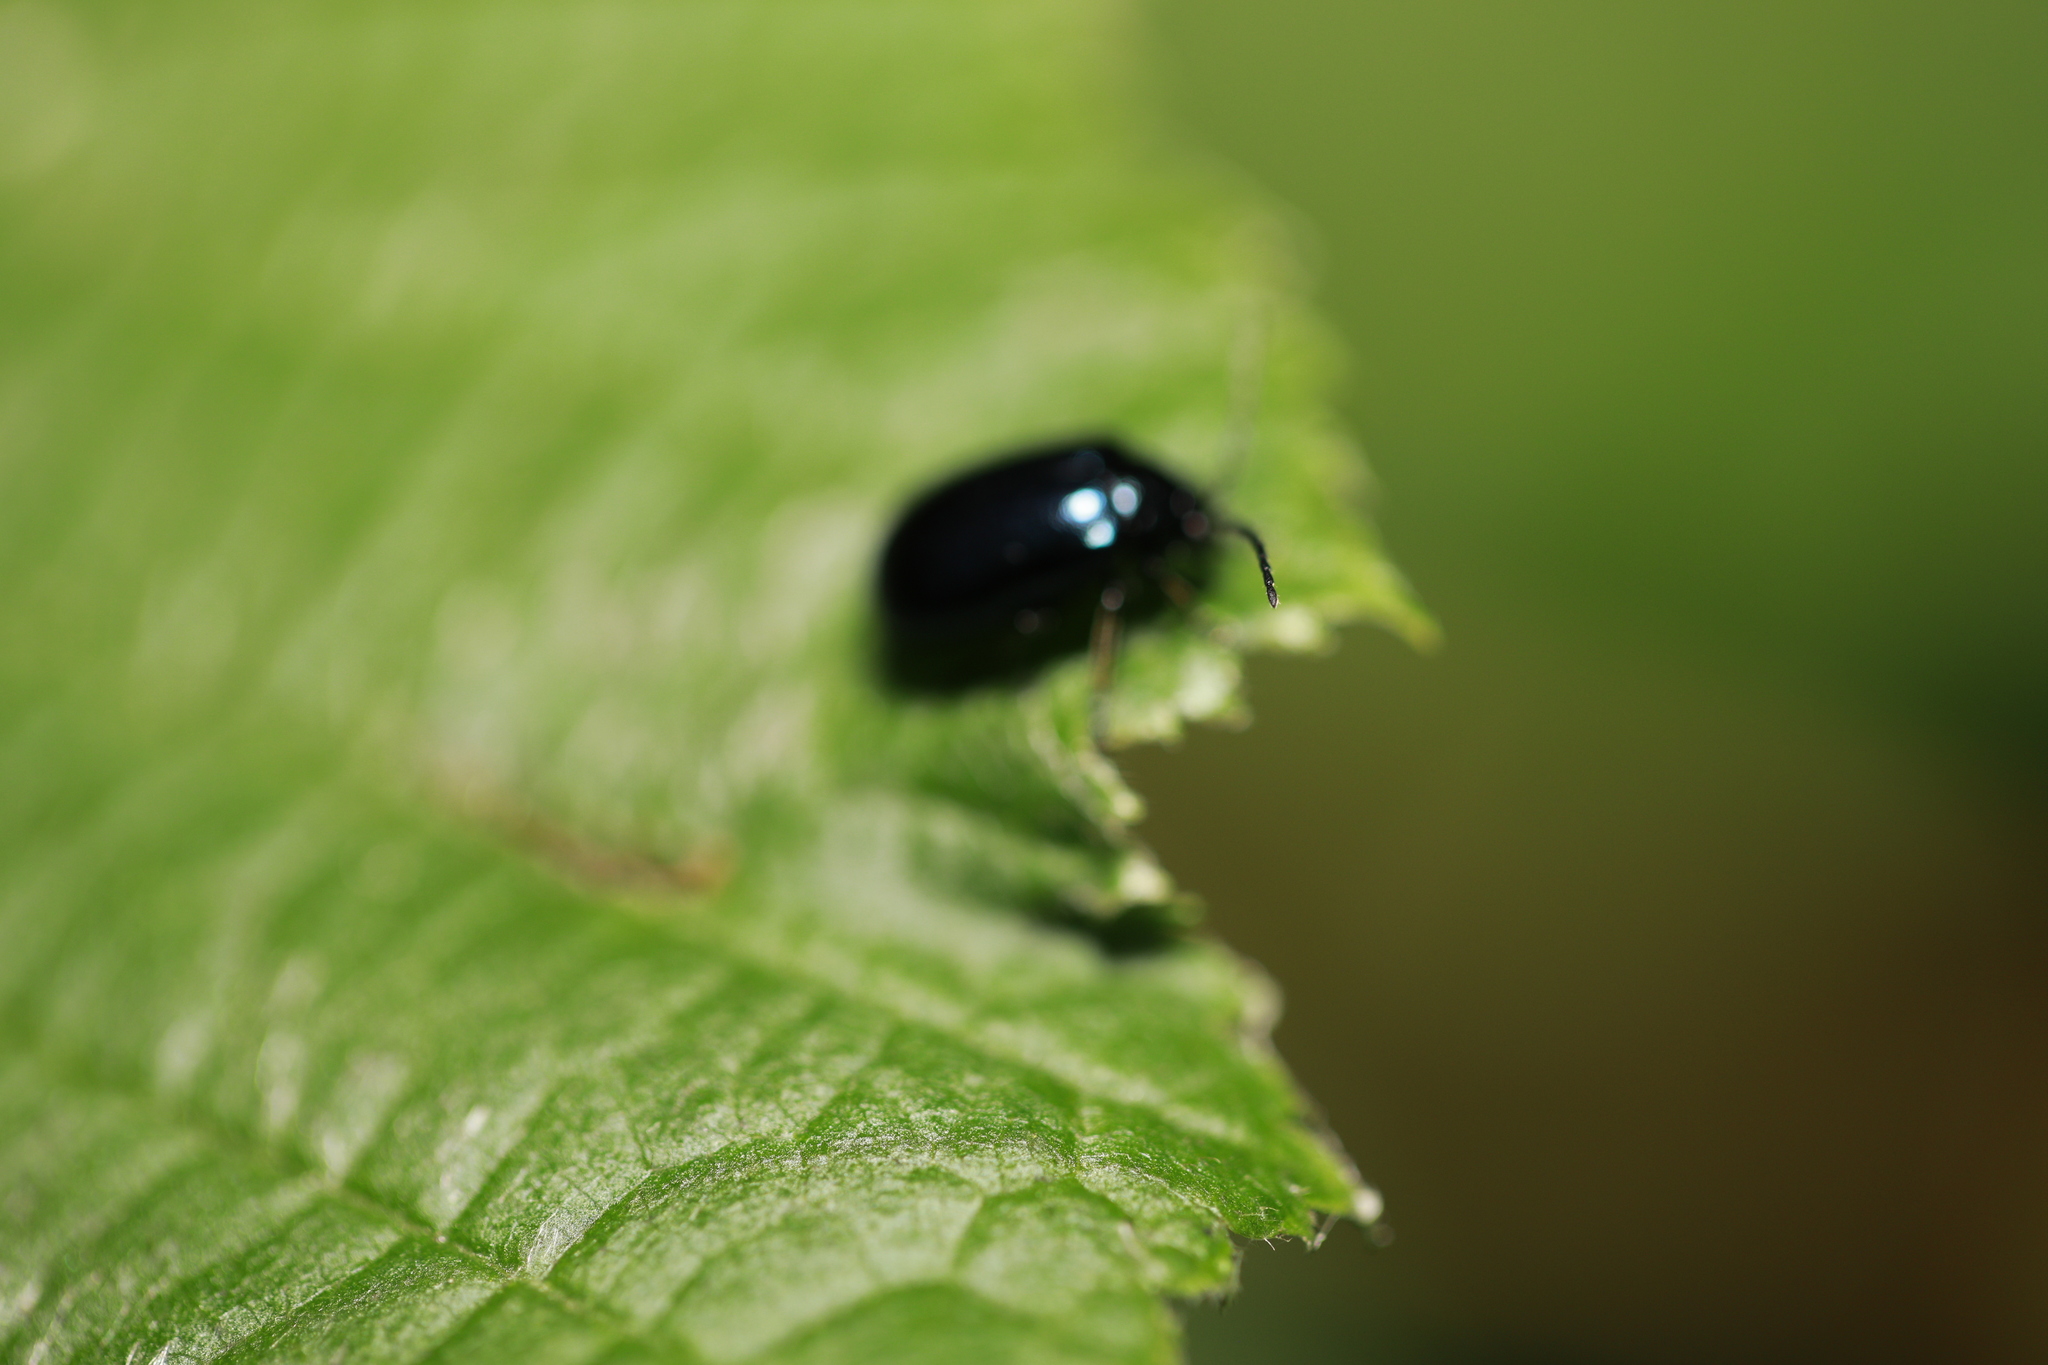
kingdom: Animalia
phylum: Arthropoda
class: Insecta
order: Coleoptera
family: Chrysomelidae
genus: Agelastica
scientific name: Agelastica alni
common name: Alder leaf beetle
